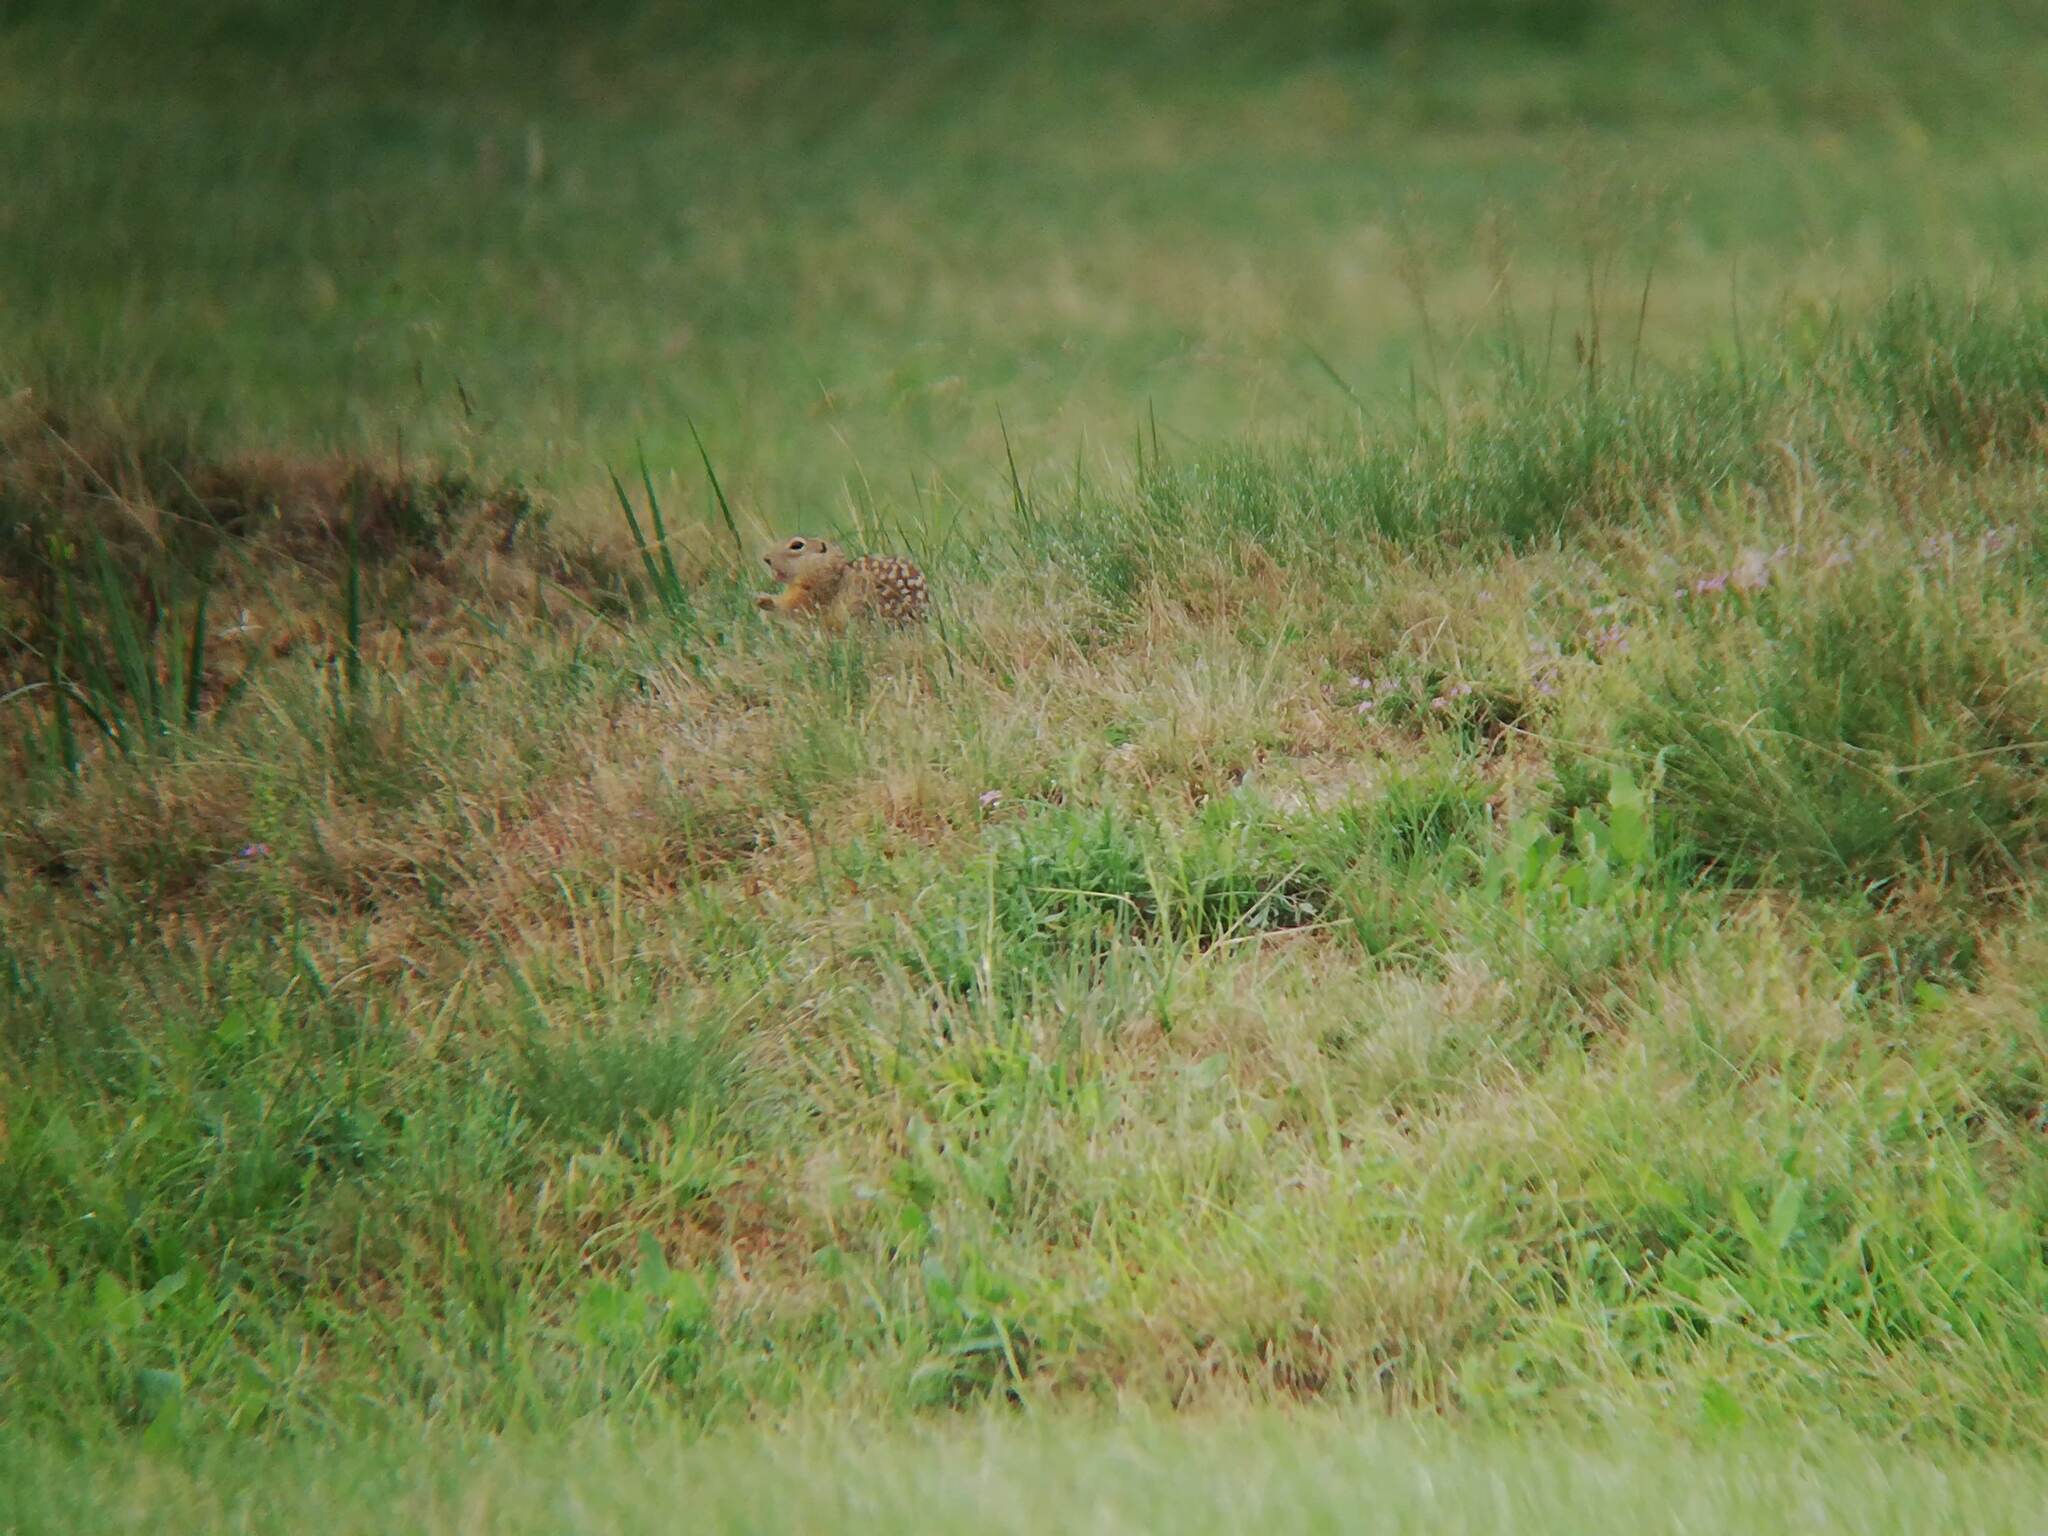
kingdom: Animalia
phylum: Chordata
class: Mammalia
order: Rodentia
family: Sciuridae
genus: Spermophilus
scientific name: Spermophilus suslicus
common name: Speckled ground squirrel
